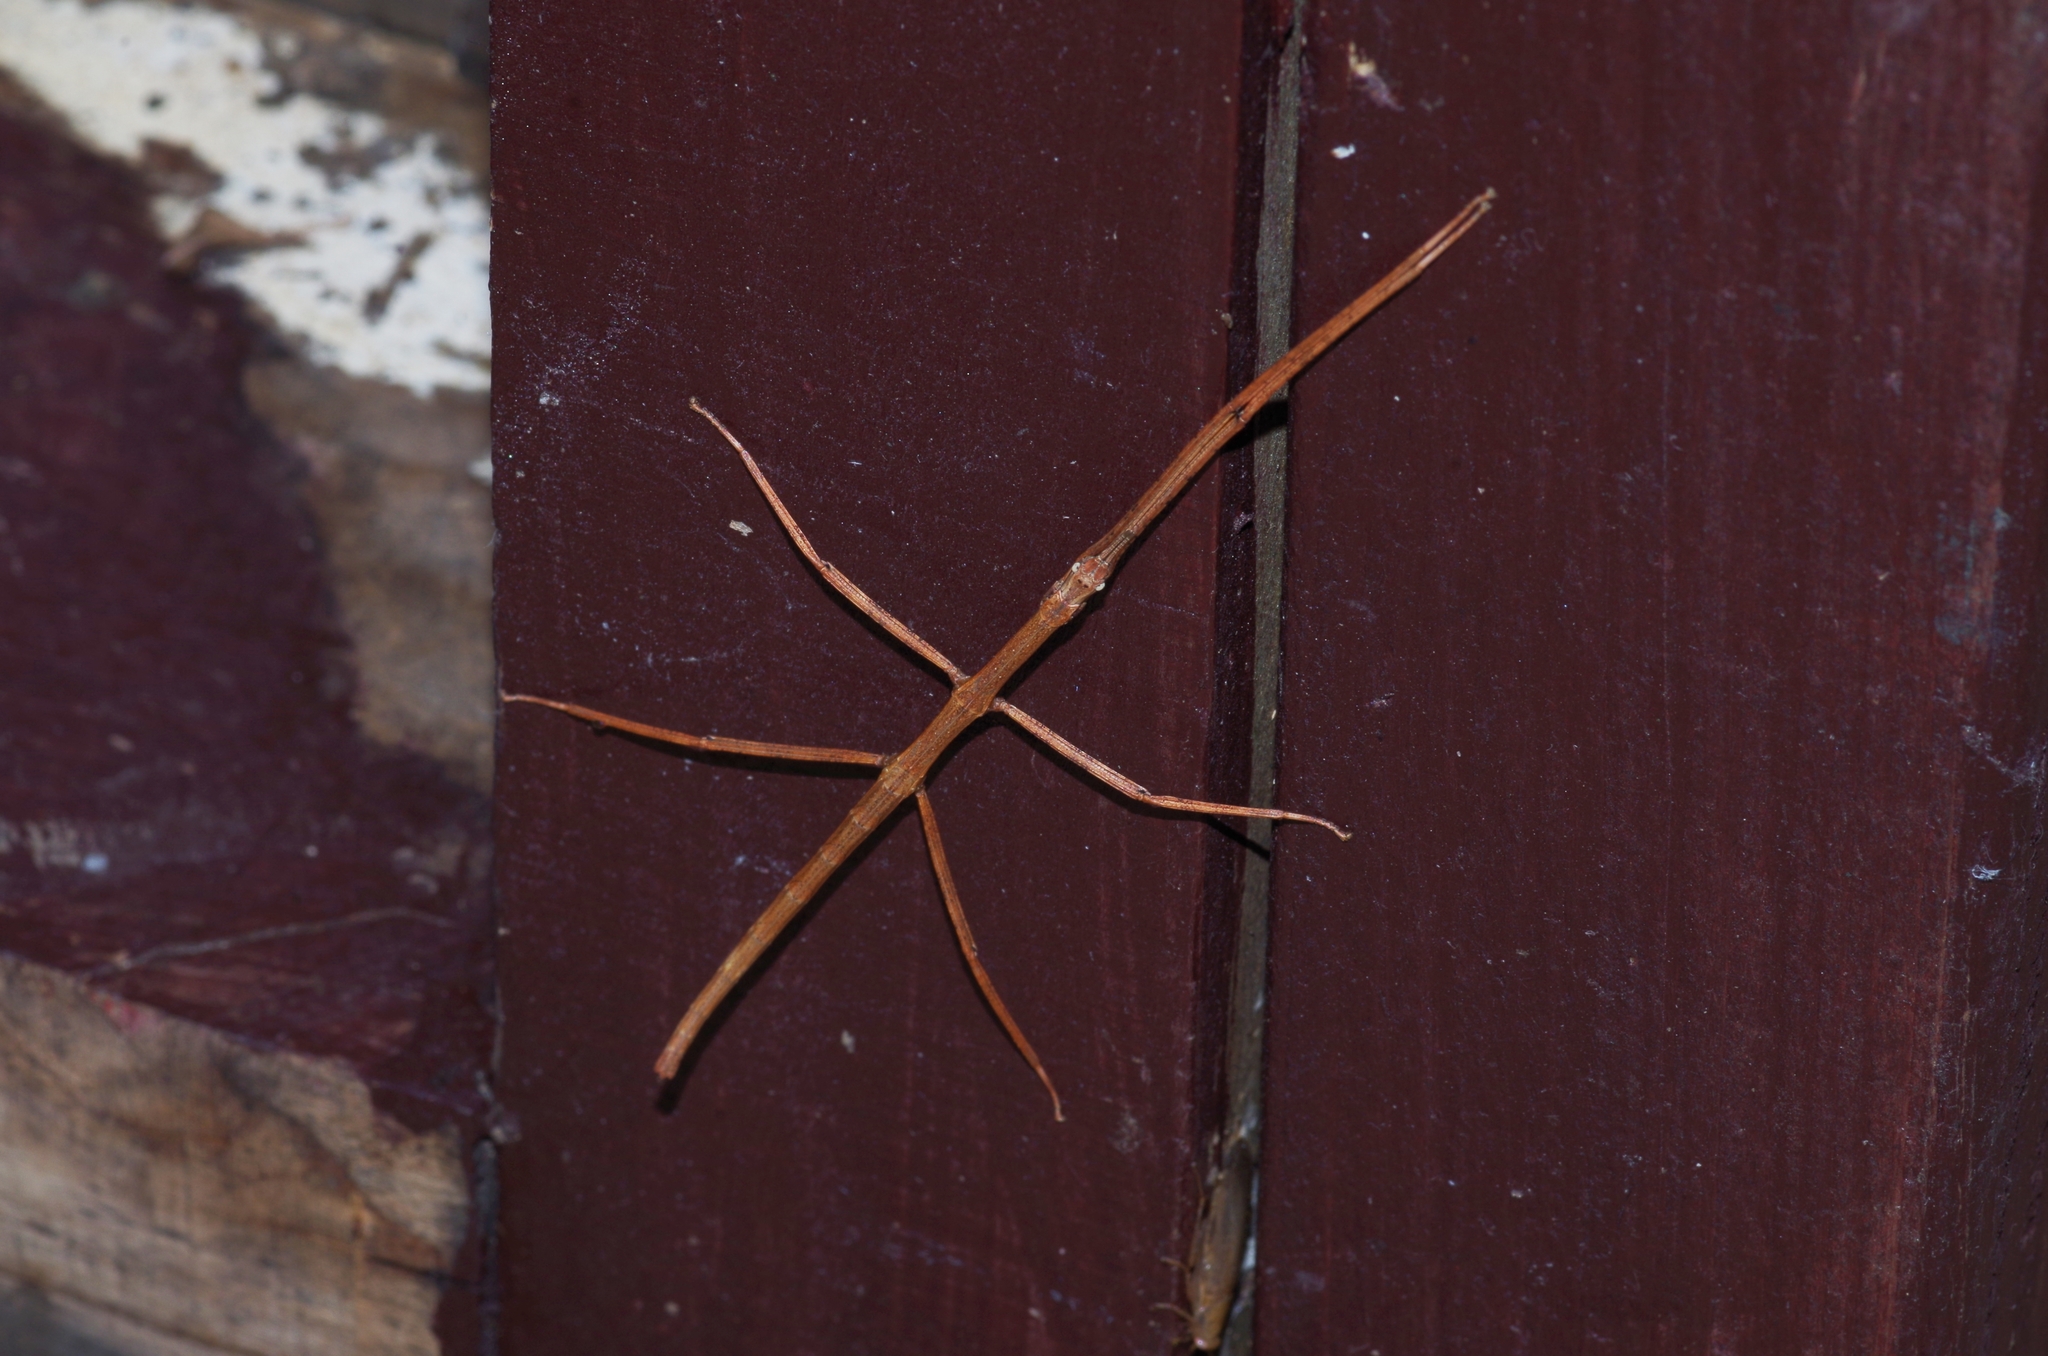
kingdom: Animalia
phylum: Arthropoda
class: Insecta
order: Phasmida
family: Phasmatidae
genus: Entoria
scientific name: Entoria miyakoensis
